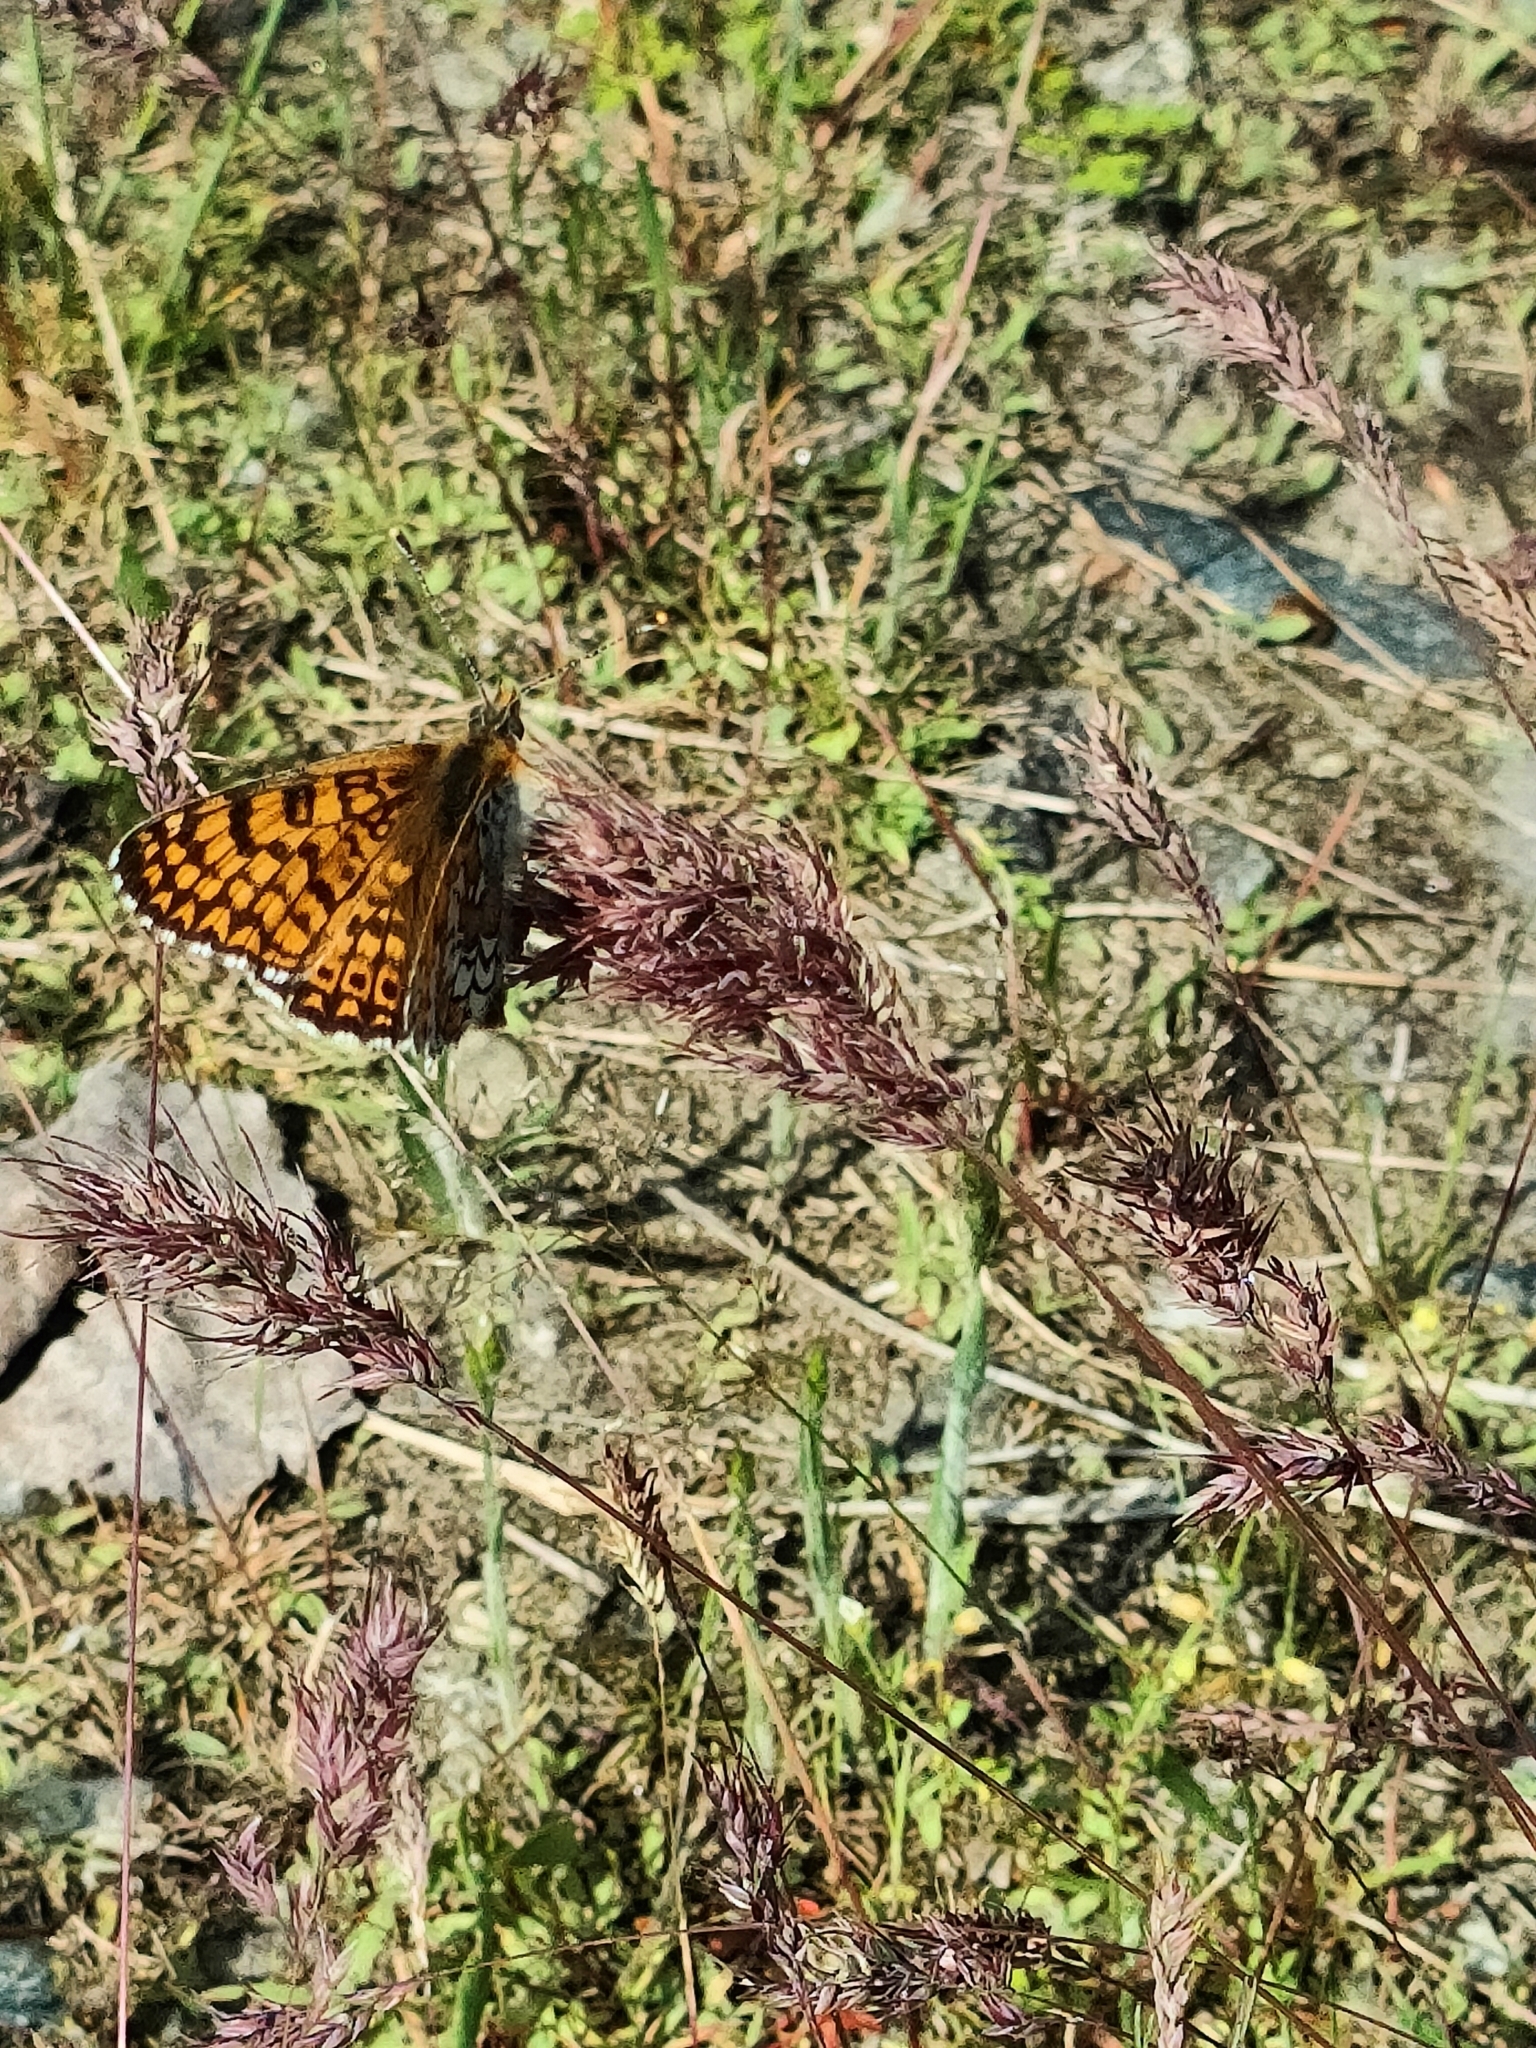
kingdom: Animalia
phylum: Arthropoda
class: Insecta
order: Lepidoptera
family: Nymphalidae
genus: Melitaea
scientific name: Melitaea cinxia
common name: Glanville fritillary
